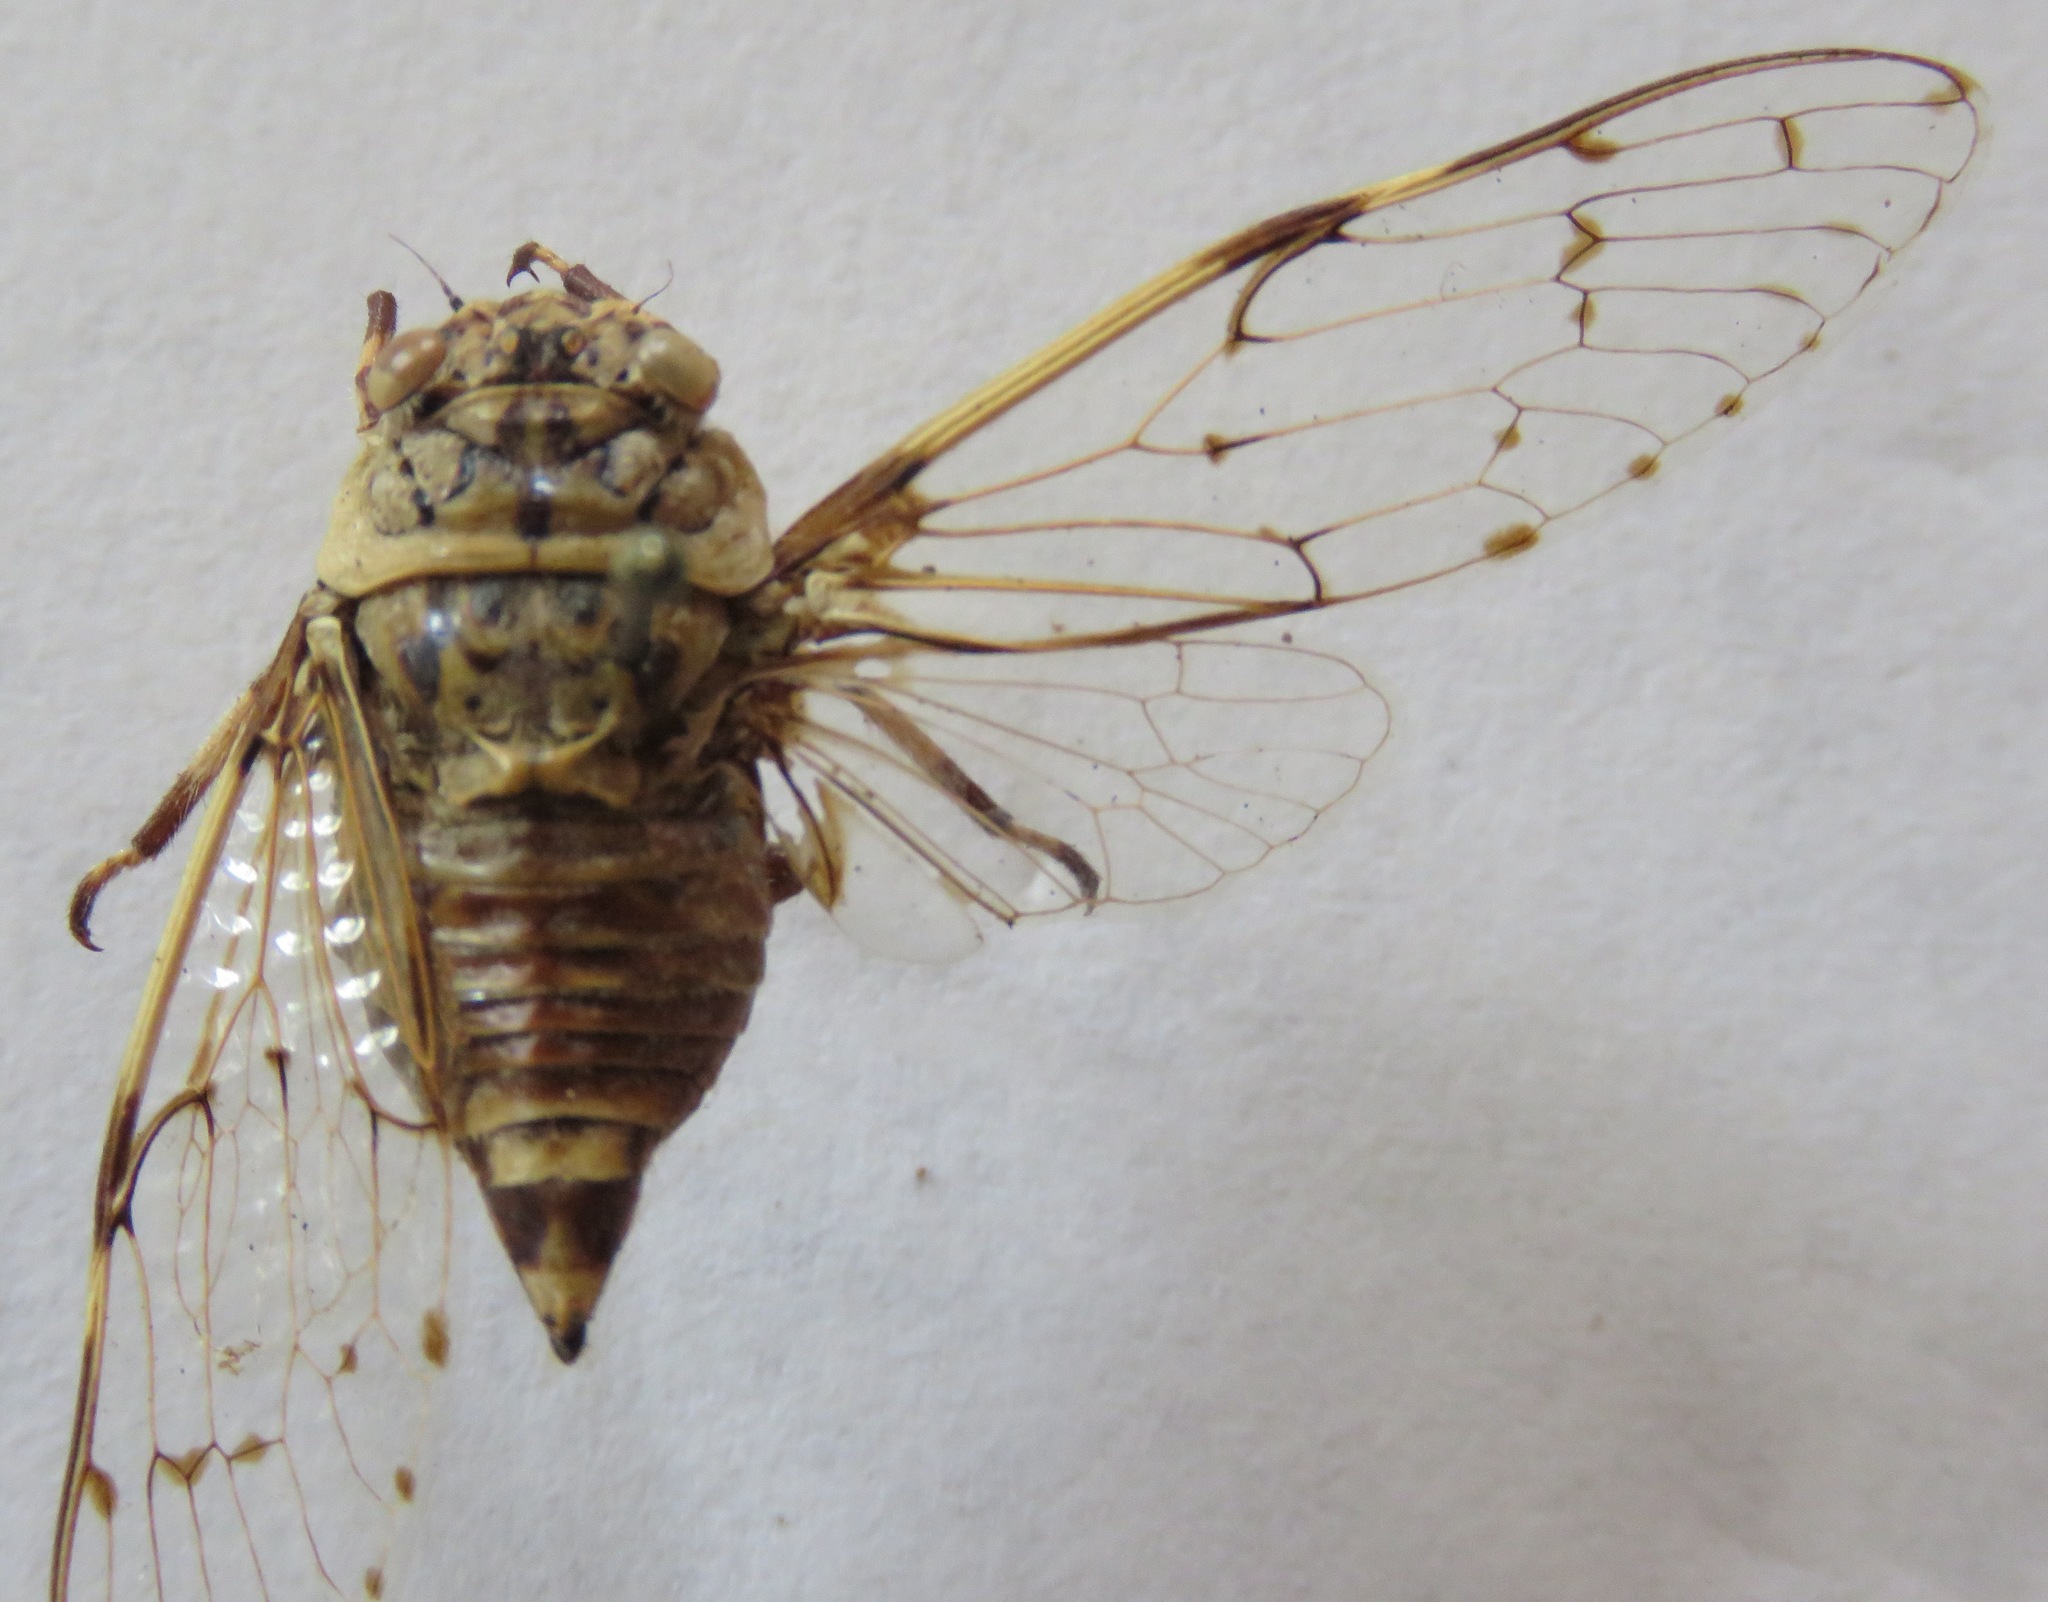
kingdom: Animalia
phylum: Arthropoda
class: Insecta
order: Hemiptera
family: Cicadidae
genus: Proarna
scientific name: Proarna insignis
